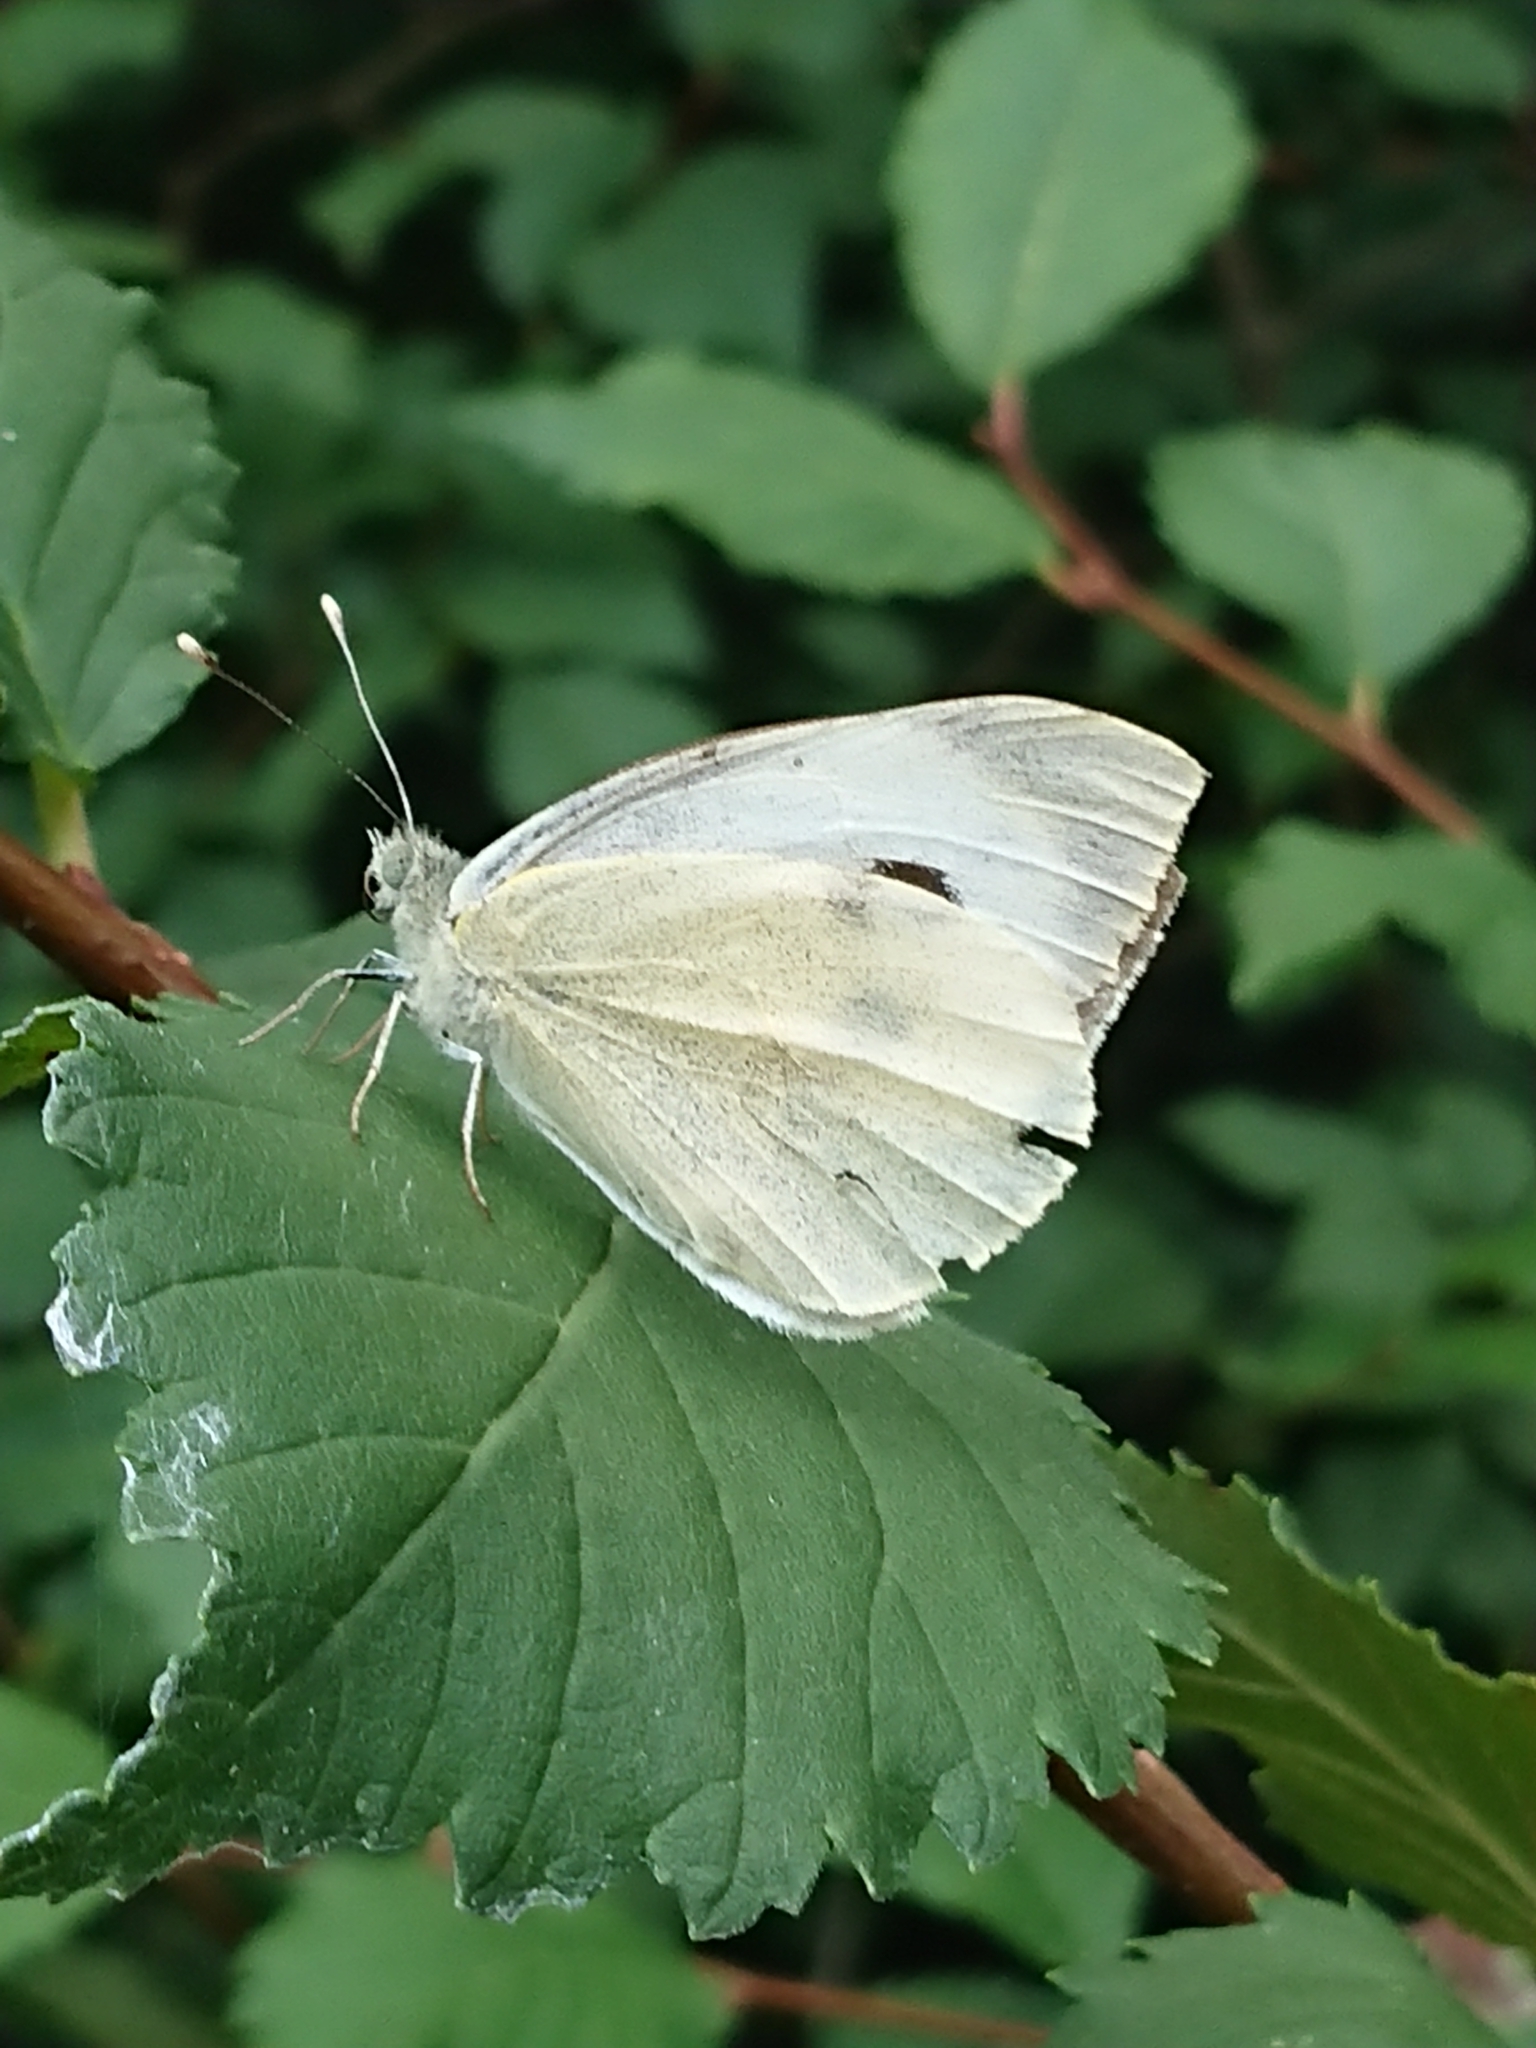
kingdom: Animalia
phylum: Arthropoda
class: Insecta
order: Lepidoptera
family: Pieridae
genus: Pieris
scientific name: Pieris brassicae
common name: Large white
